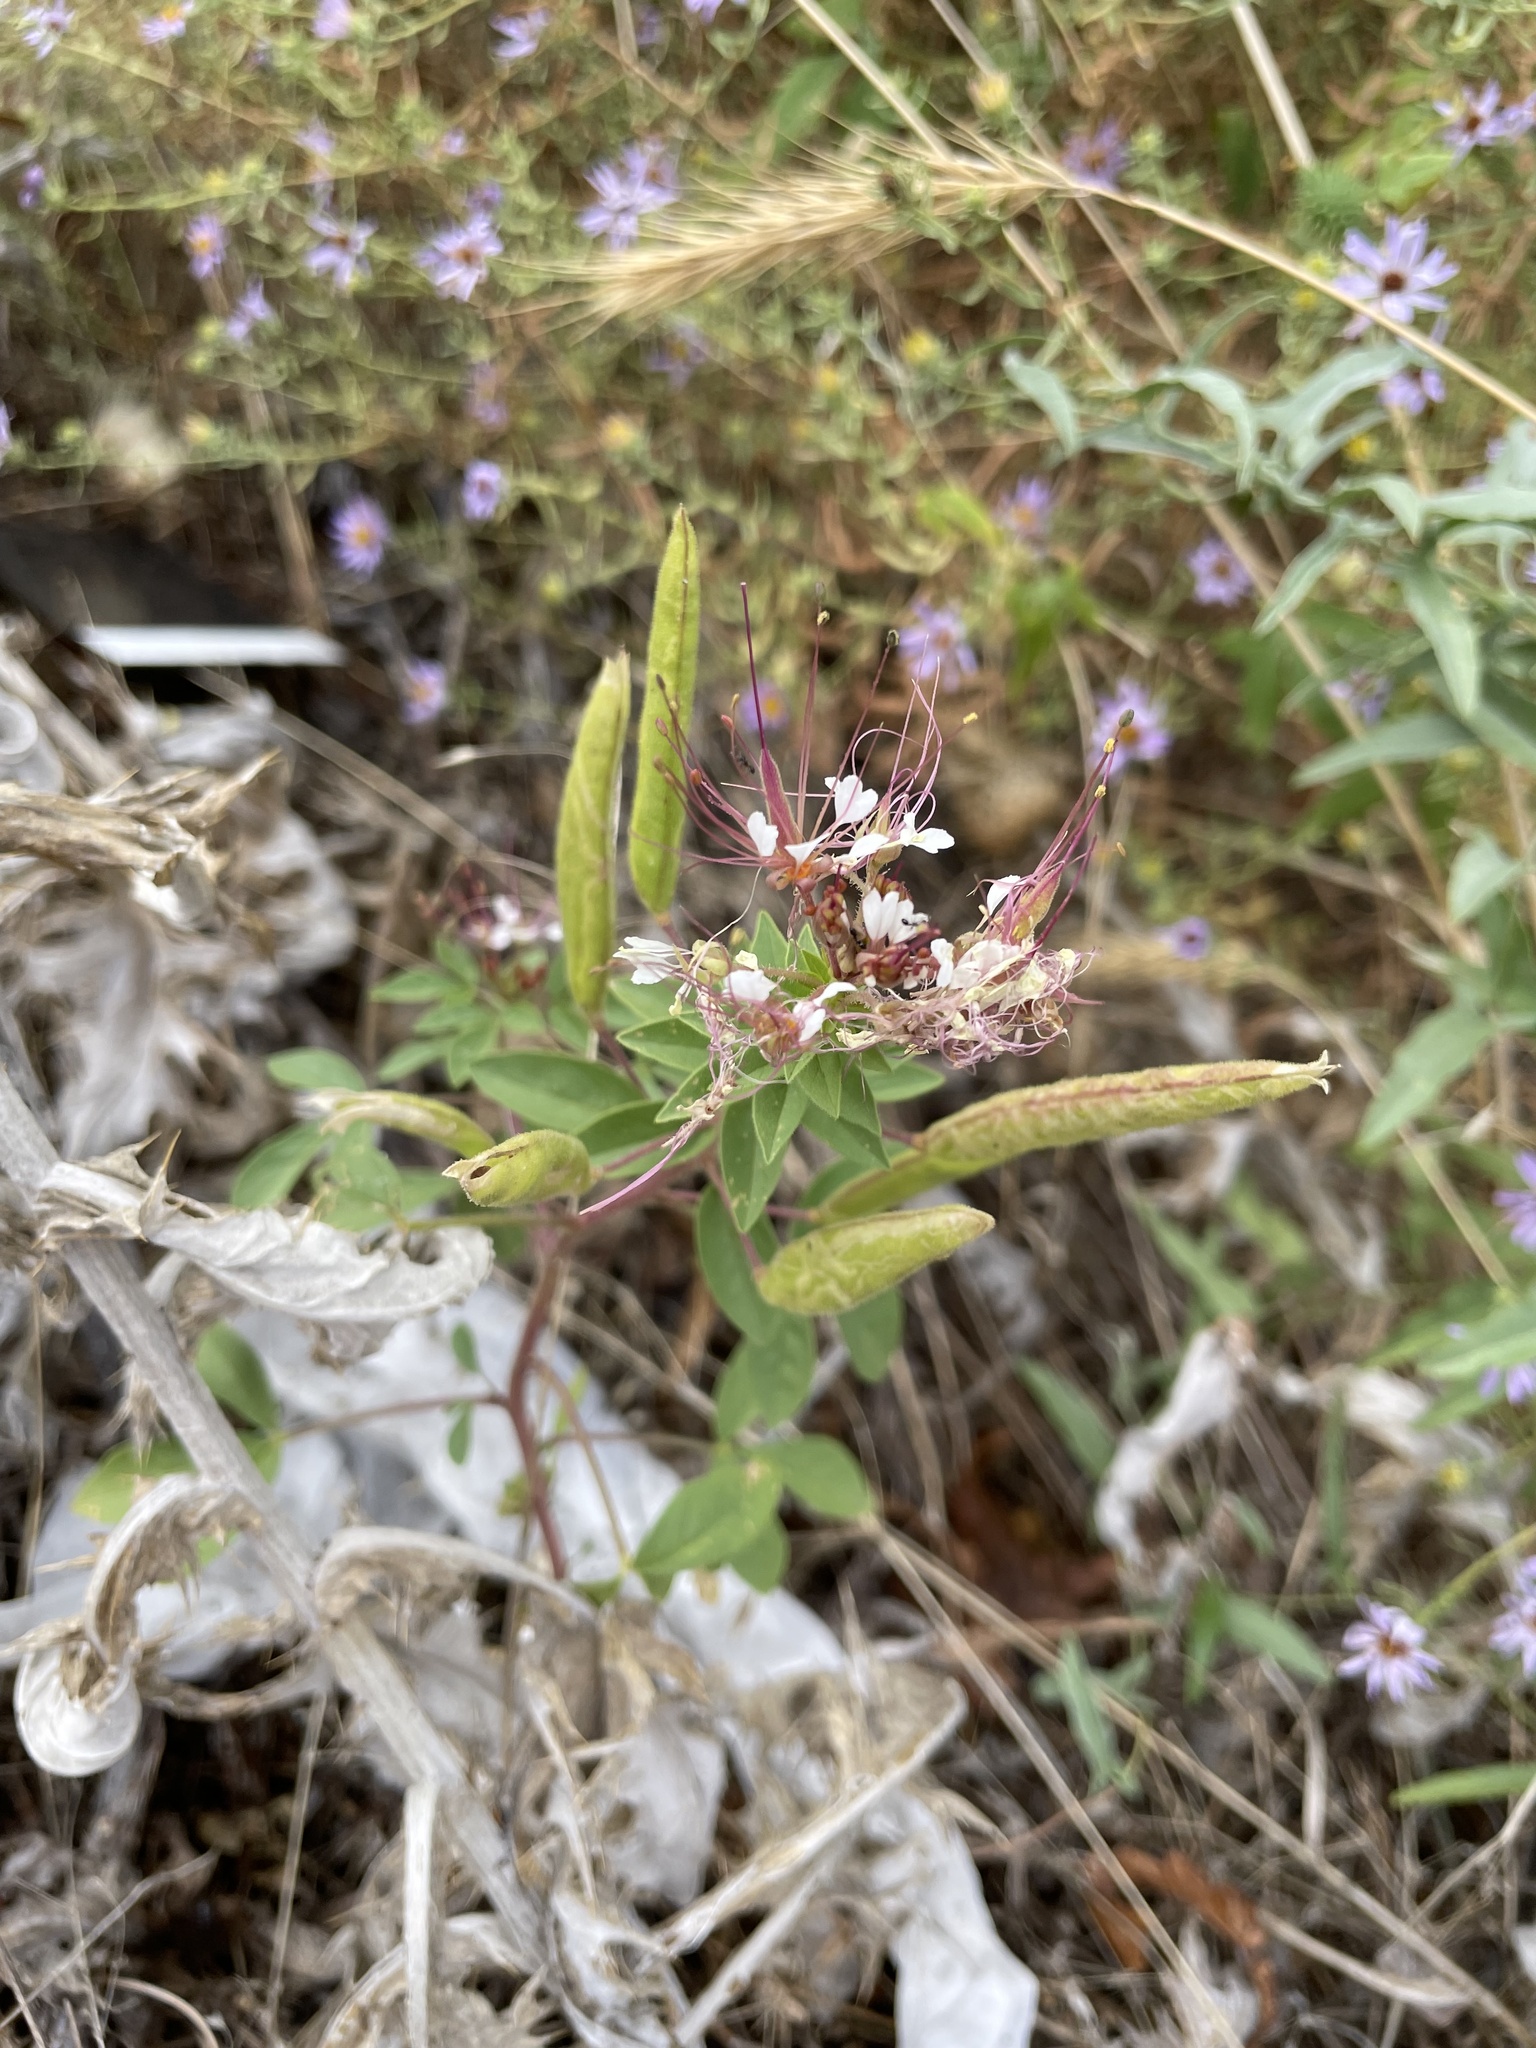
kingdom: Plantae
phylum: Tracheophyta
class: Magnoliopsida
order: Brassicales
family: Cleomaceae
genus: Polanisia
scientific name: Polanisia dodecandra
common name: Clammyweed
